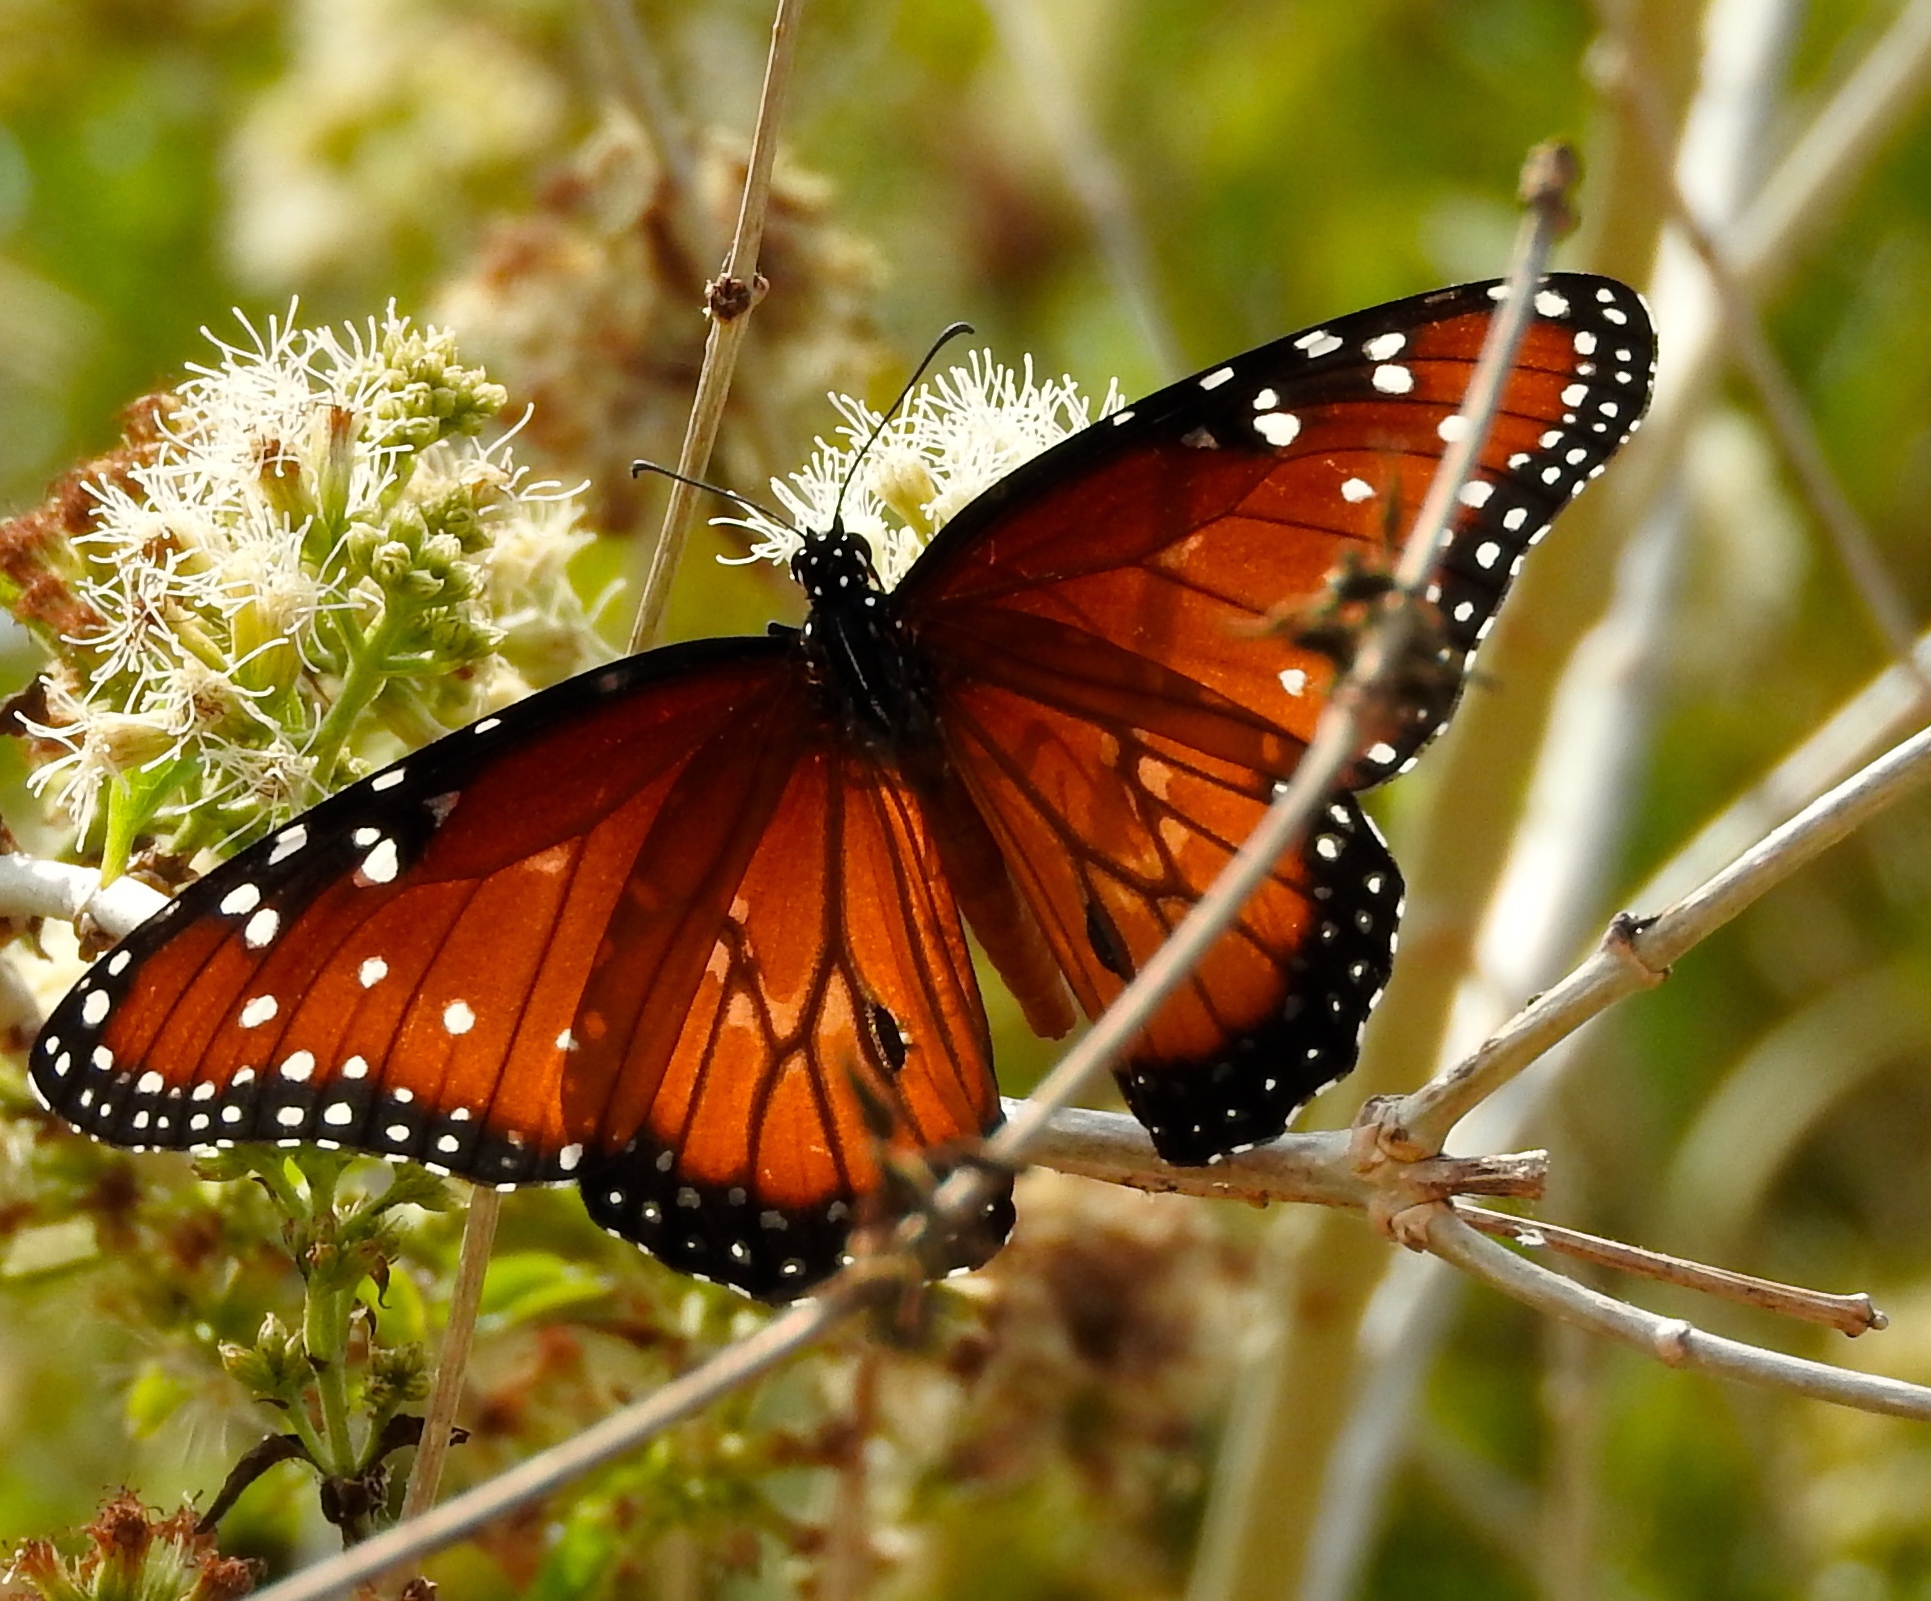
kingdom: Animalia
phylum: Arthropoda
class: Insecta
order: Lepidoptera
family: Nymphalidae
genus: Danaus
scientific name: Danaus gilippus
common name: Queen
